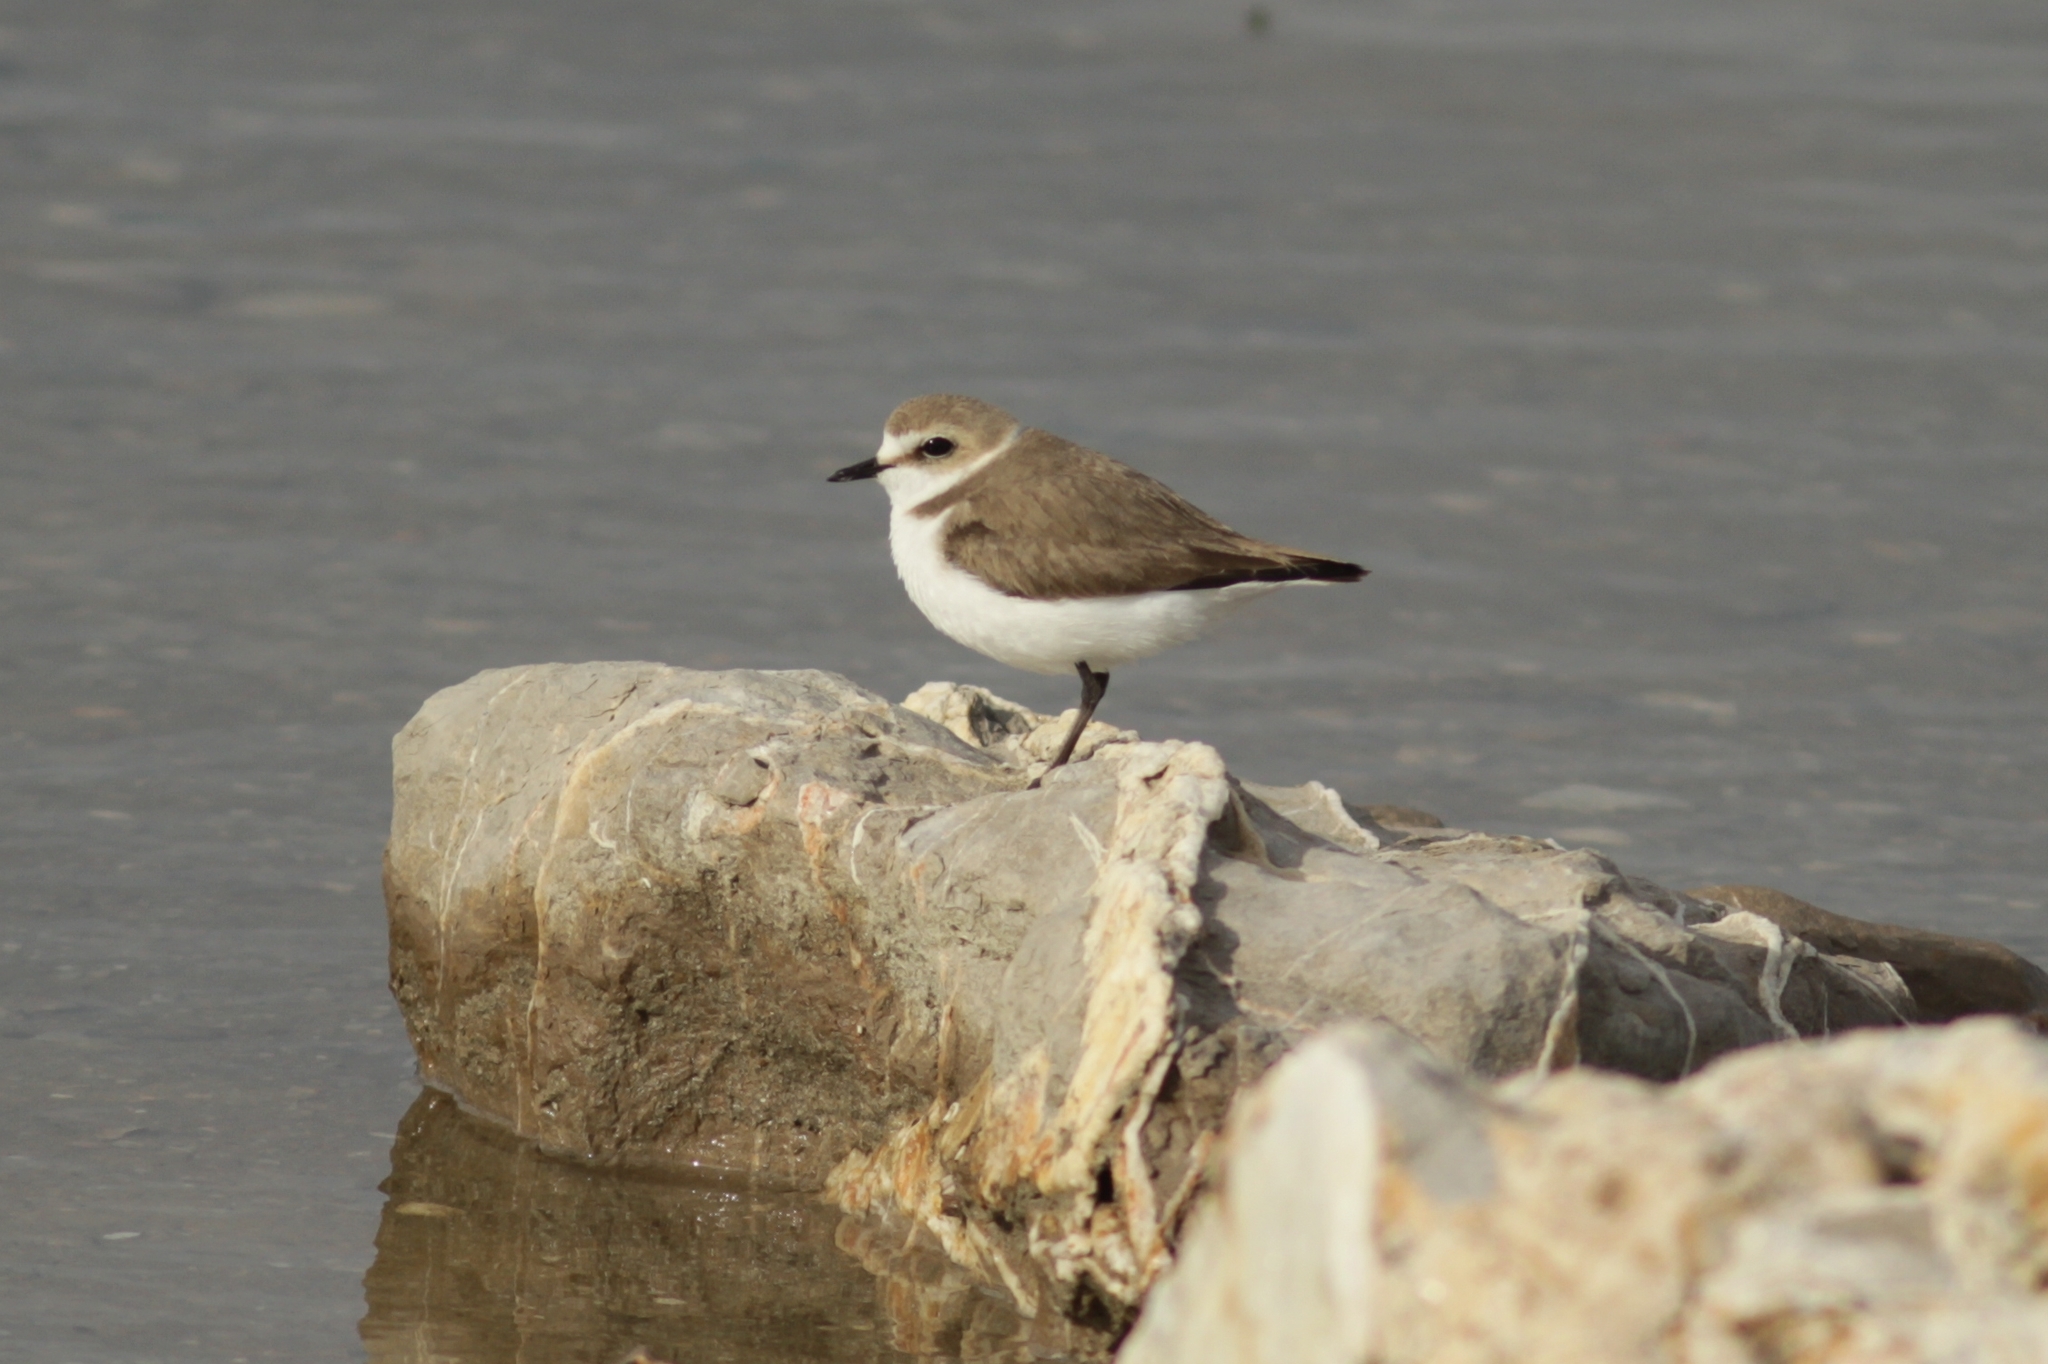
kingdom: Animalia
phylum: Chordata
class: Aves
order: Charadriiformes
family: Charadriidae
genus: Charadrius
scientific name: Charadrius alexandrinus
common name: Kentish plover
